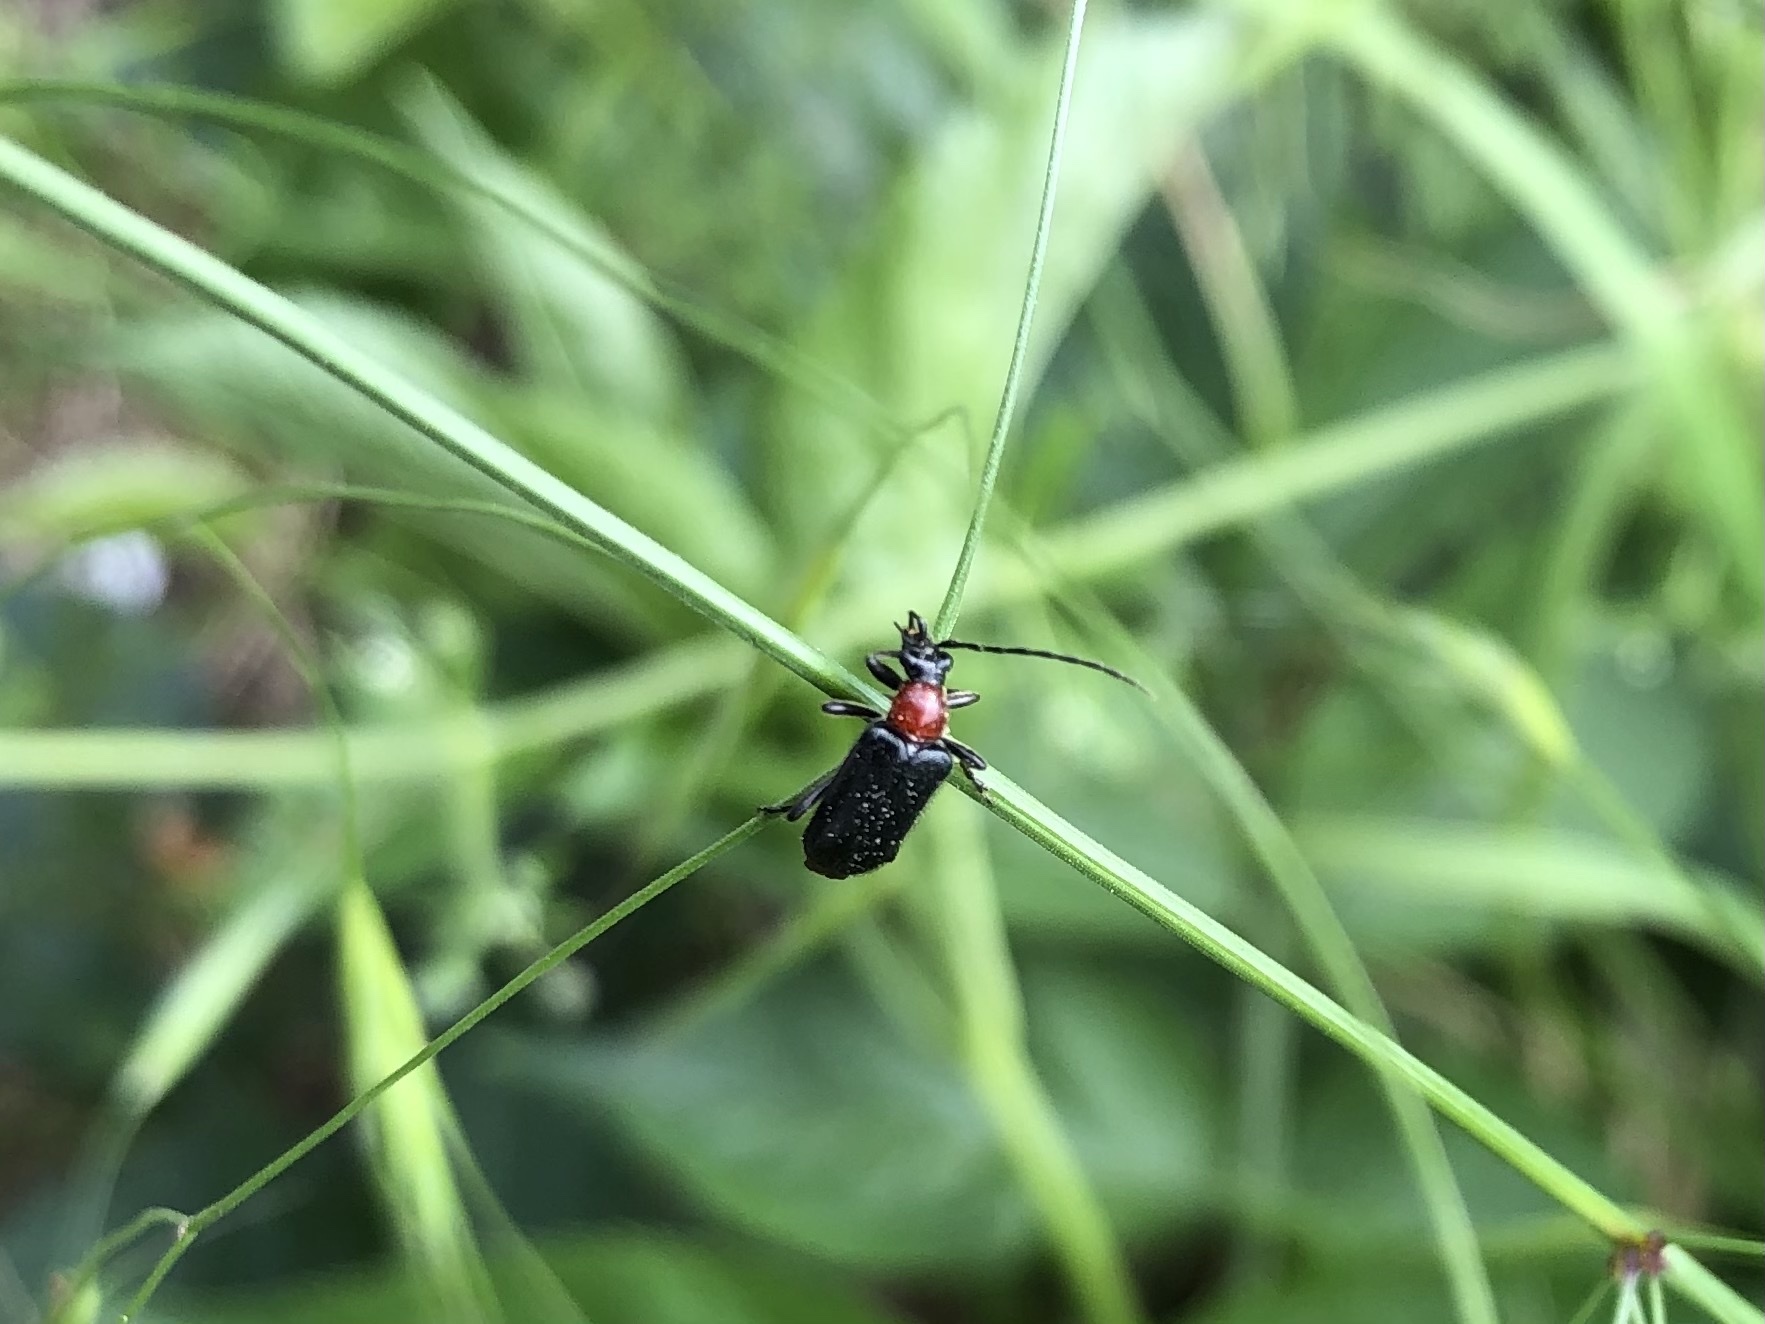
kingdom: Animalia
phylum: Arthropoda
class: Insecta
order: Coleoptera
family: Cerambycidae
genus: Dinoptera
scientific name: Dinoptera collaris
